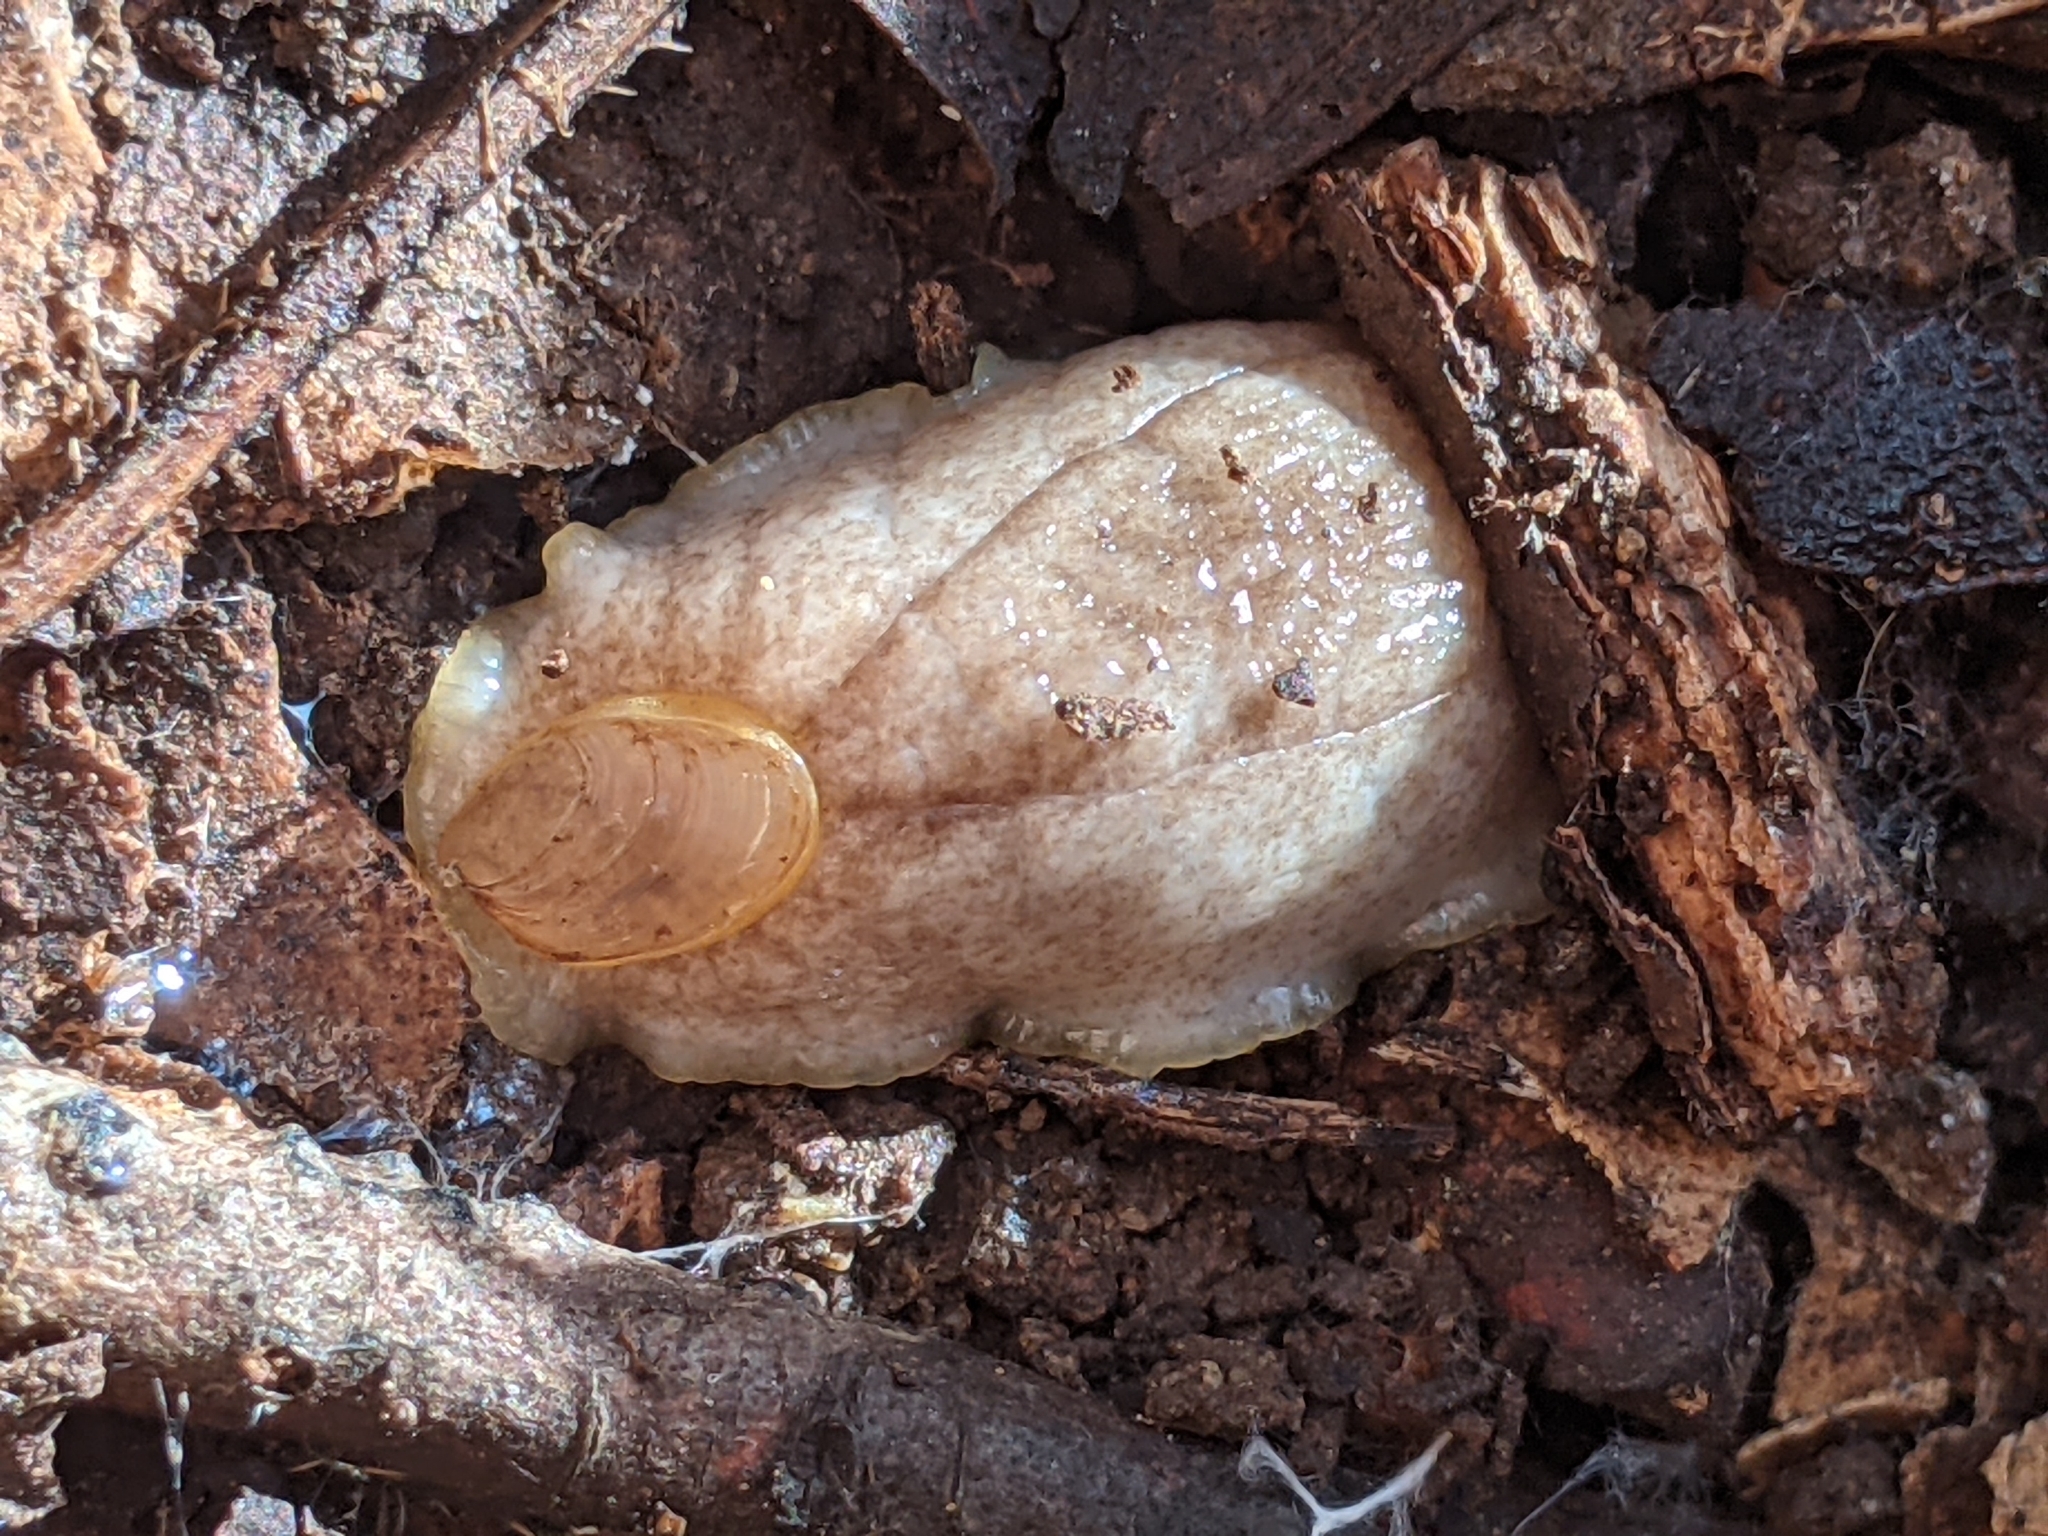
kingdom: Animalia
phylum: Mollusca
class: Gastropoda
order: Stylommatophora
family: Testacellidae
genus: Testacella
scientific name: Testacella haliotidea
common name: Shelled slug
